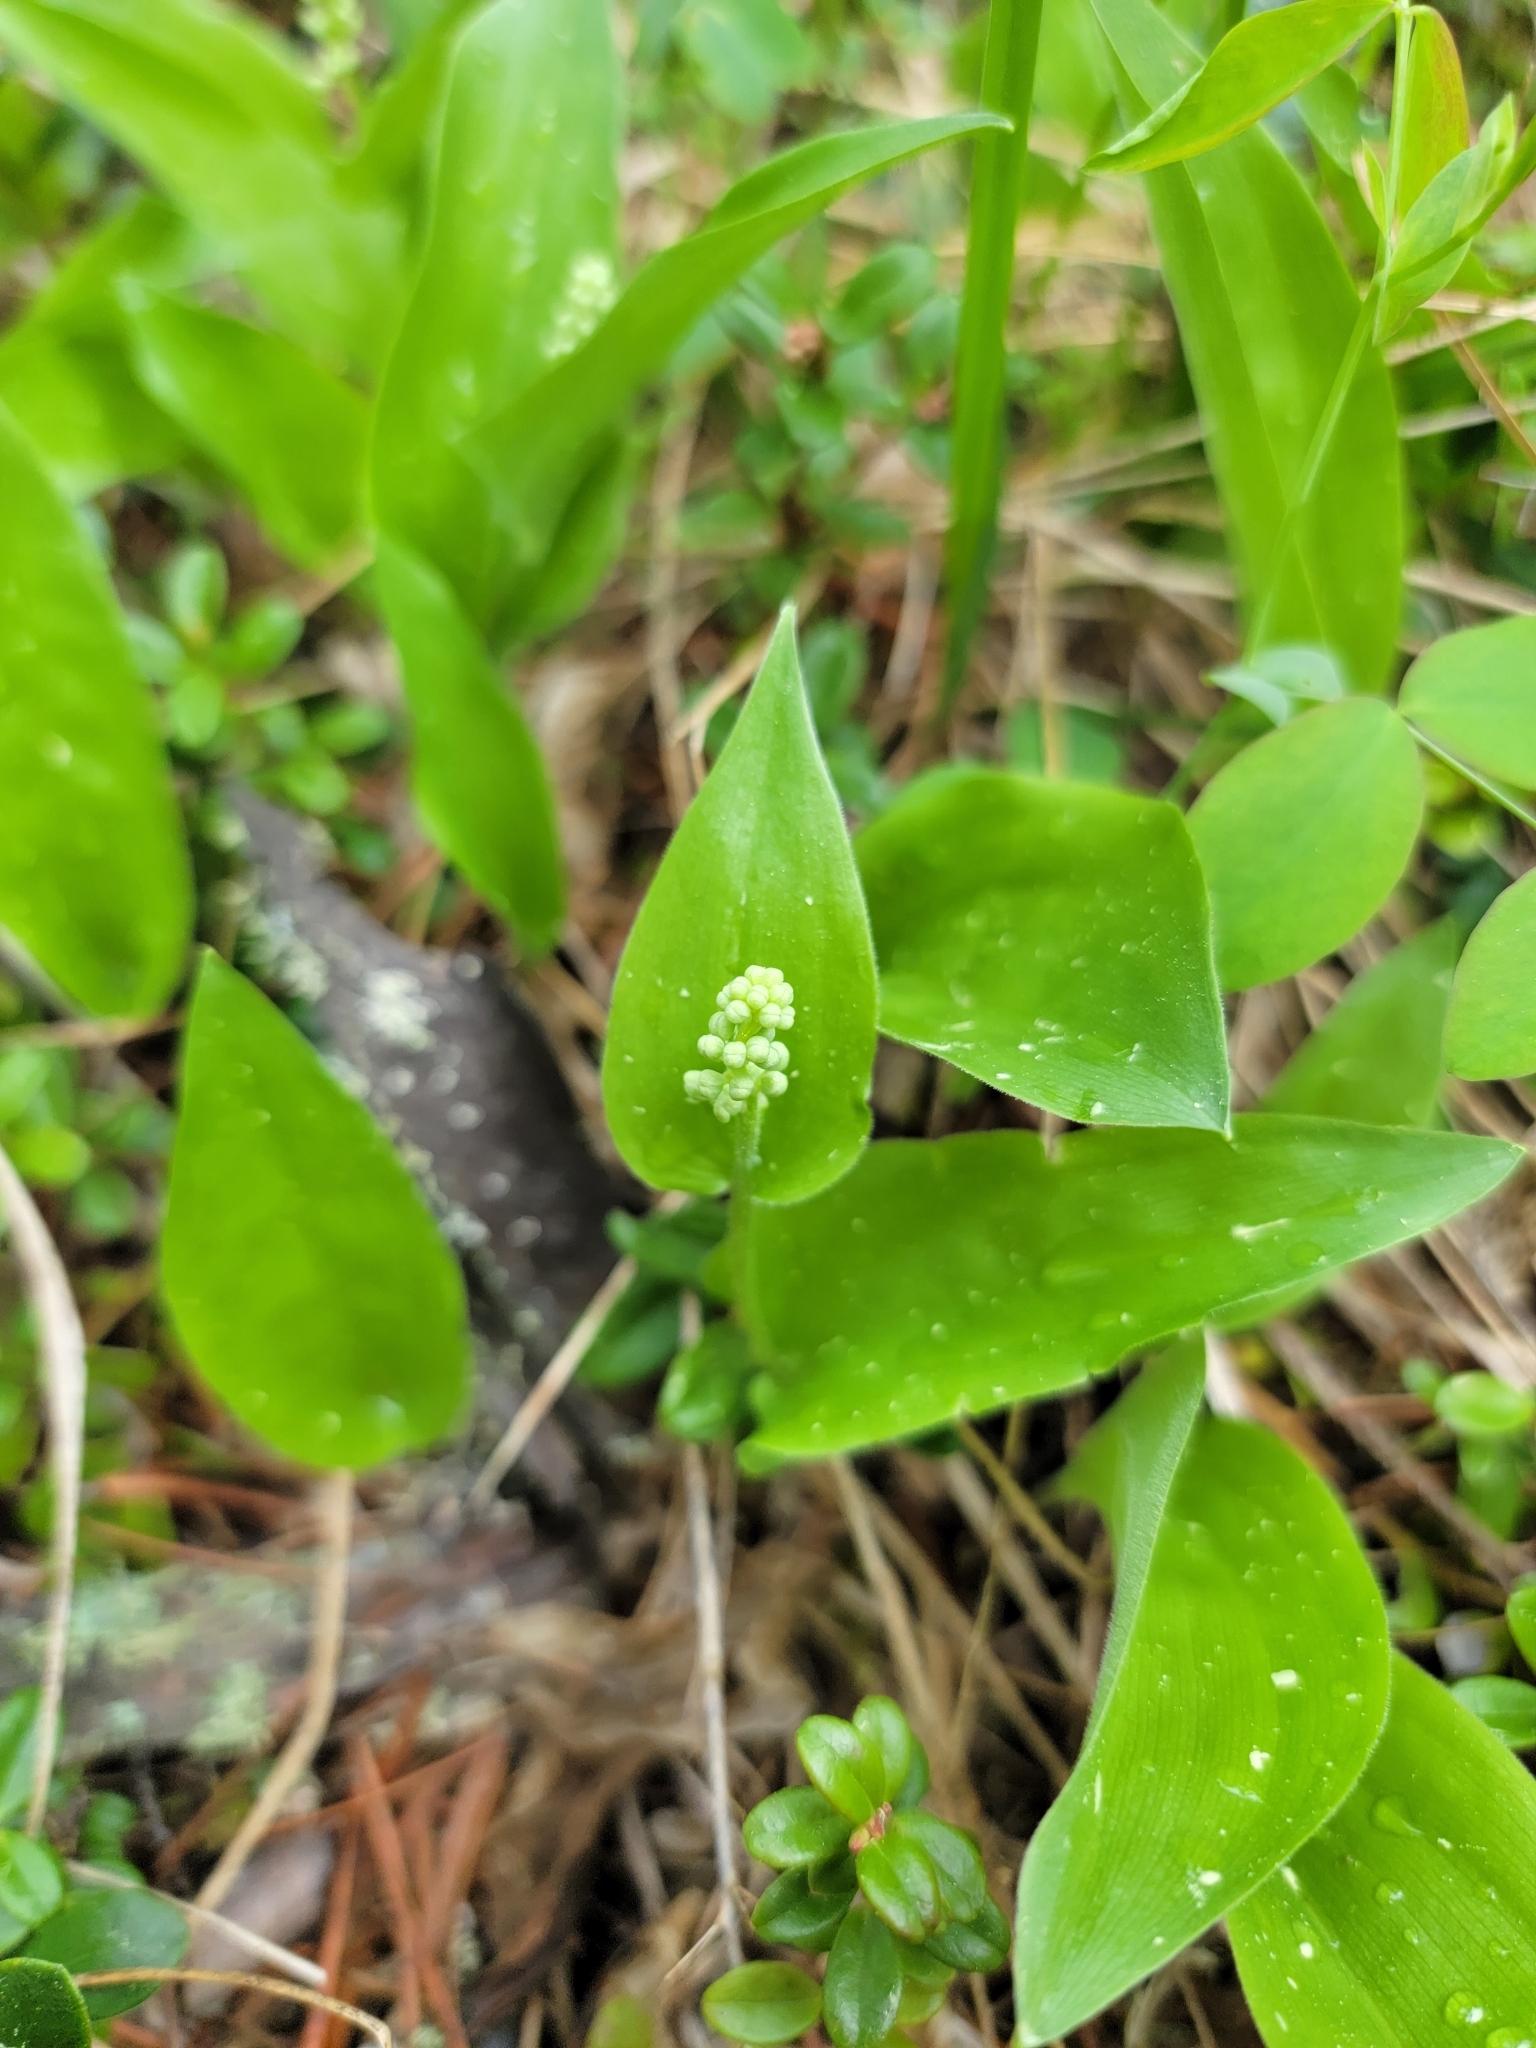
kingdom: Plantae
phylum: Tracheophyta
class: Liliopsida
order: Asparagales
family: Asparagaceae
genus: Maianthemum
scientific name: Maianthemum canadense
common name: False lily-of-the-valley
